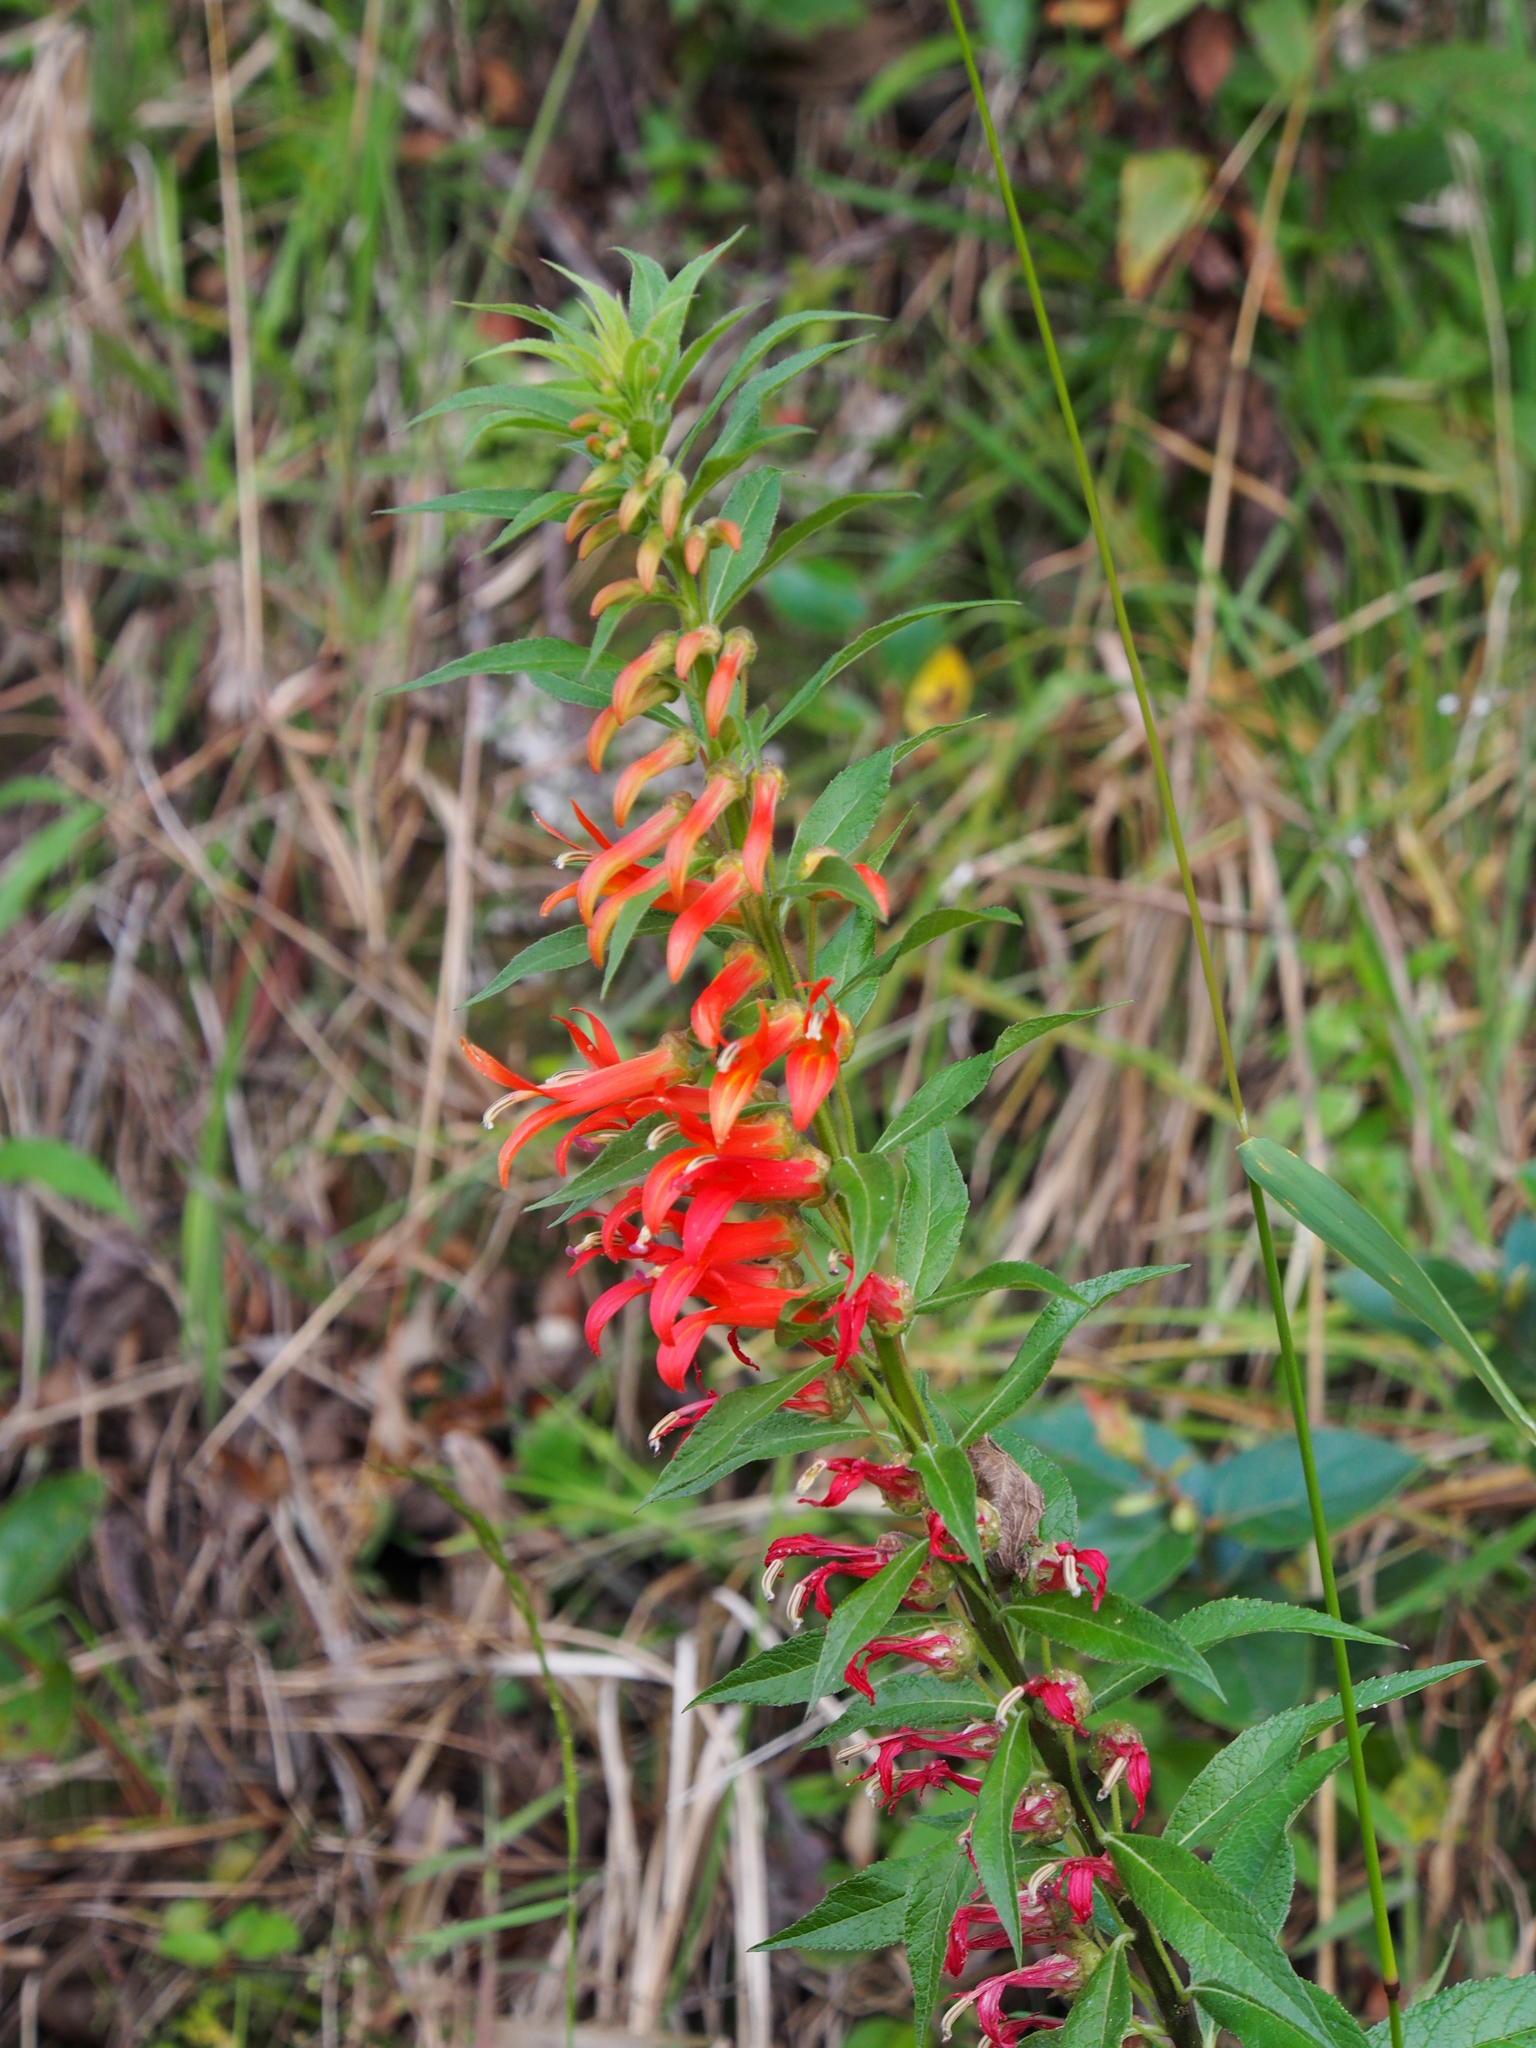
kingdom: Plantae
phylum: Tracheophyta
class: Magnoliopsida
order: Asterales
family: Campanulaceae
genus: Lobelia
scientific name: Lobelia laxiflora
